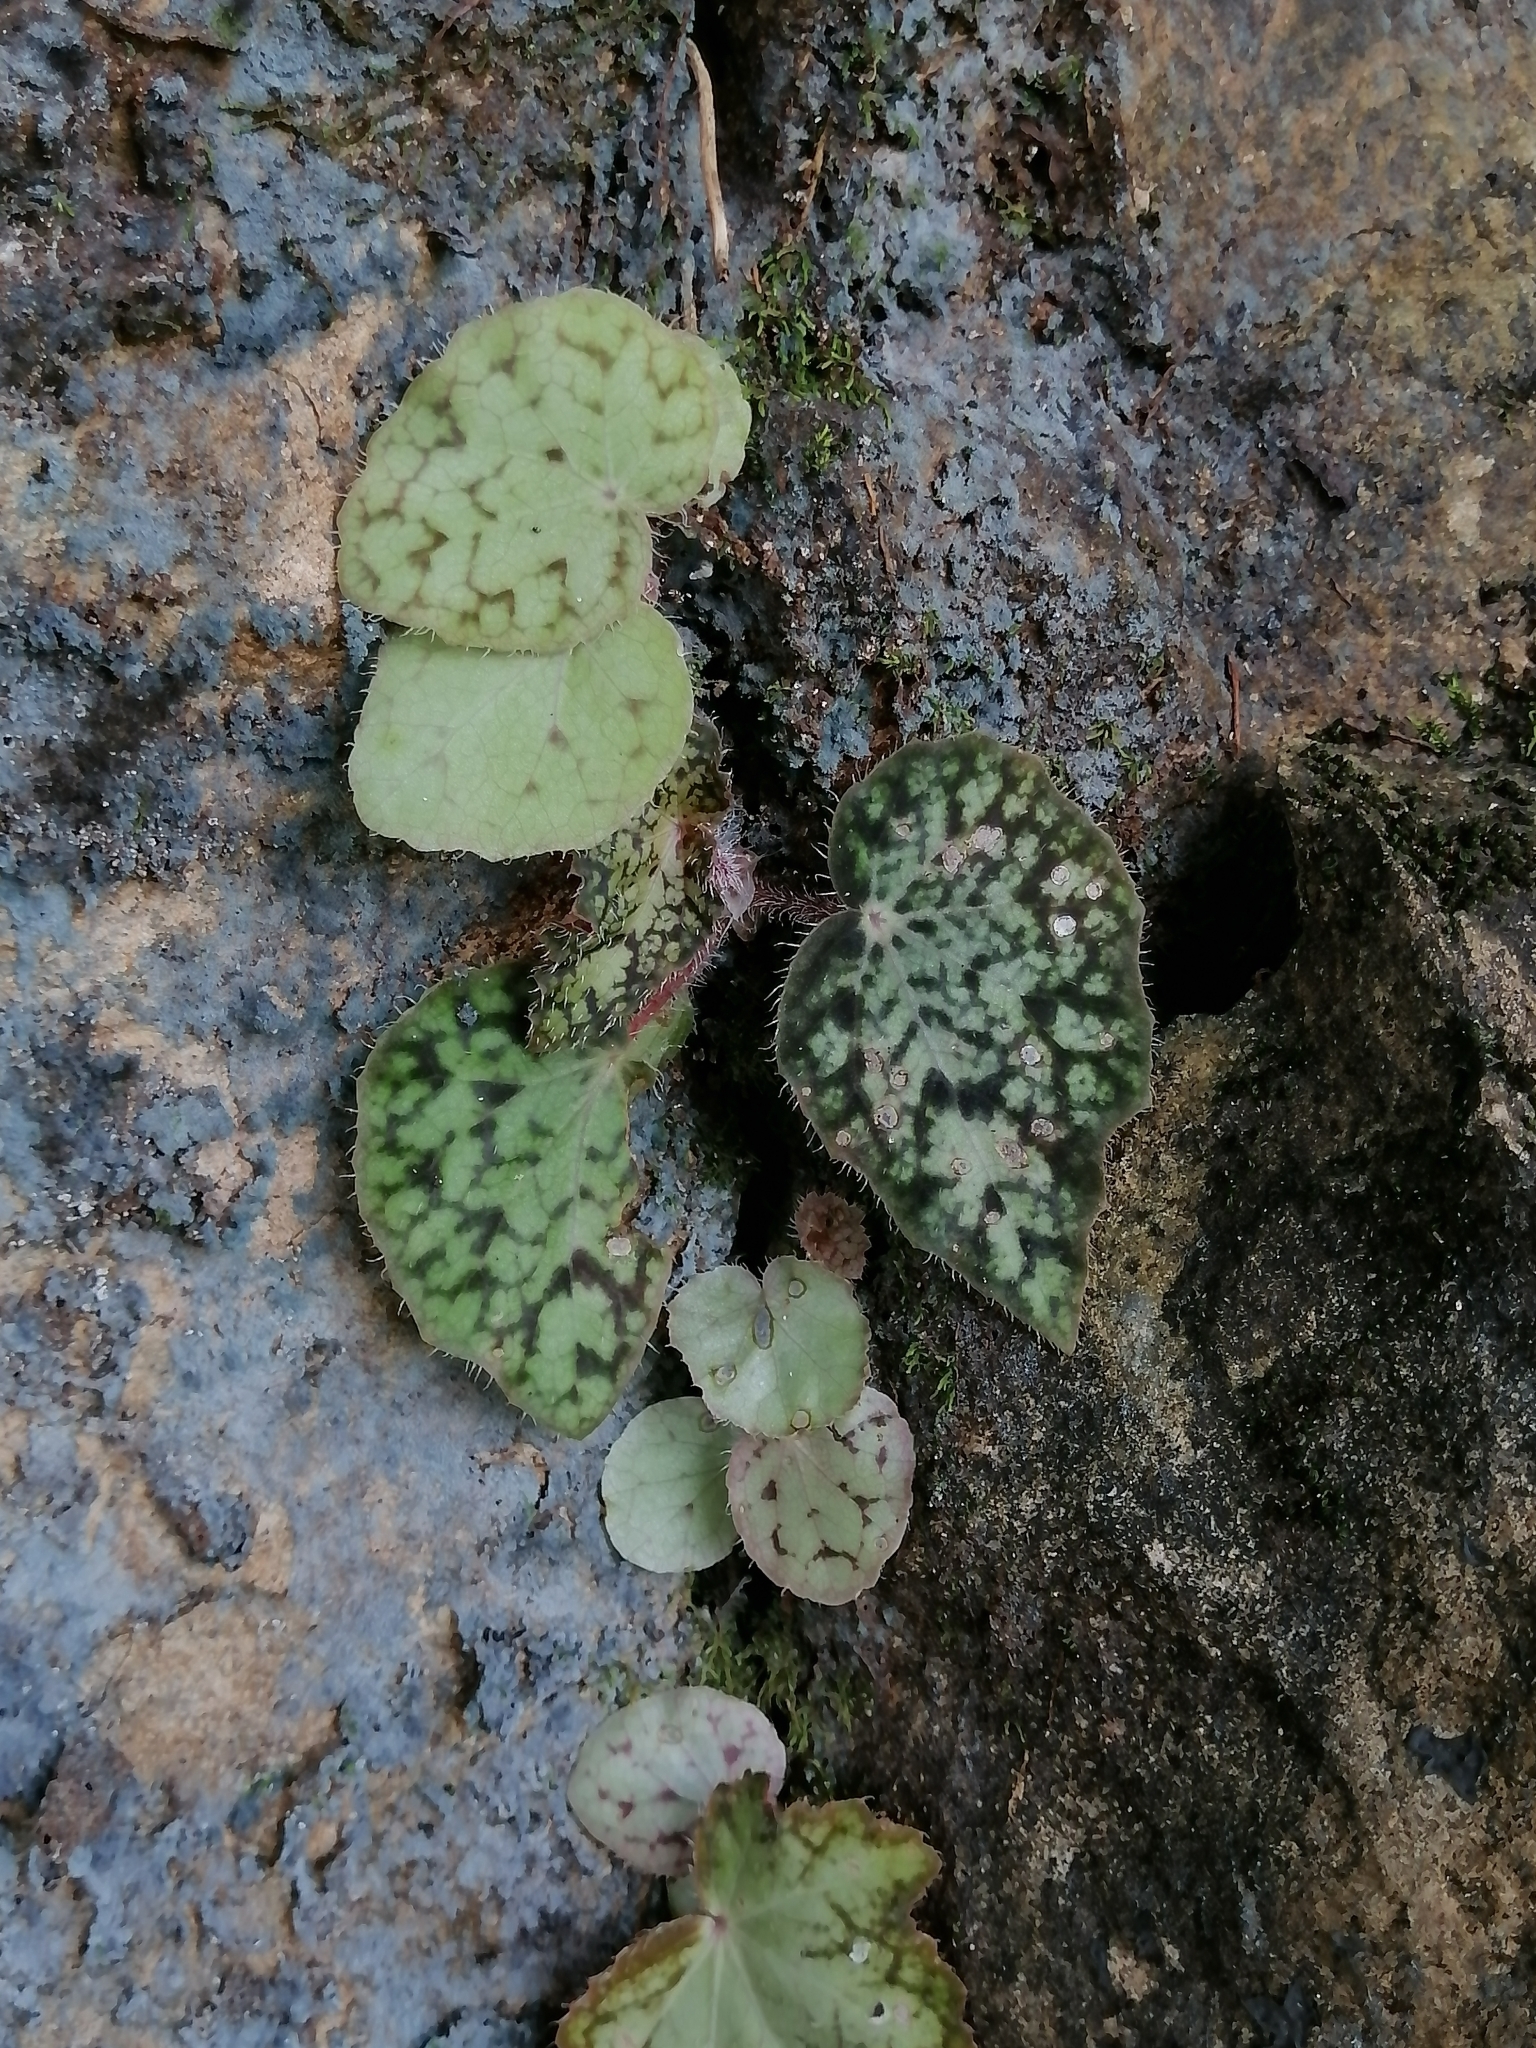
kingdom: Plantae
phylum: Tracheophyta
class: Magnoliopsida
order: Cucurbitales
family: Begoniaceae
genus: Begonia
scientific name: Begonia strigillosa
